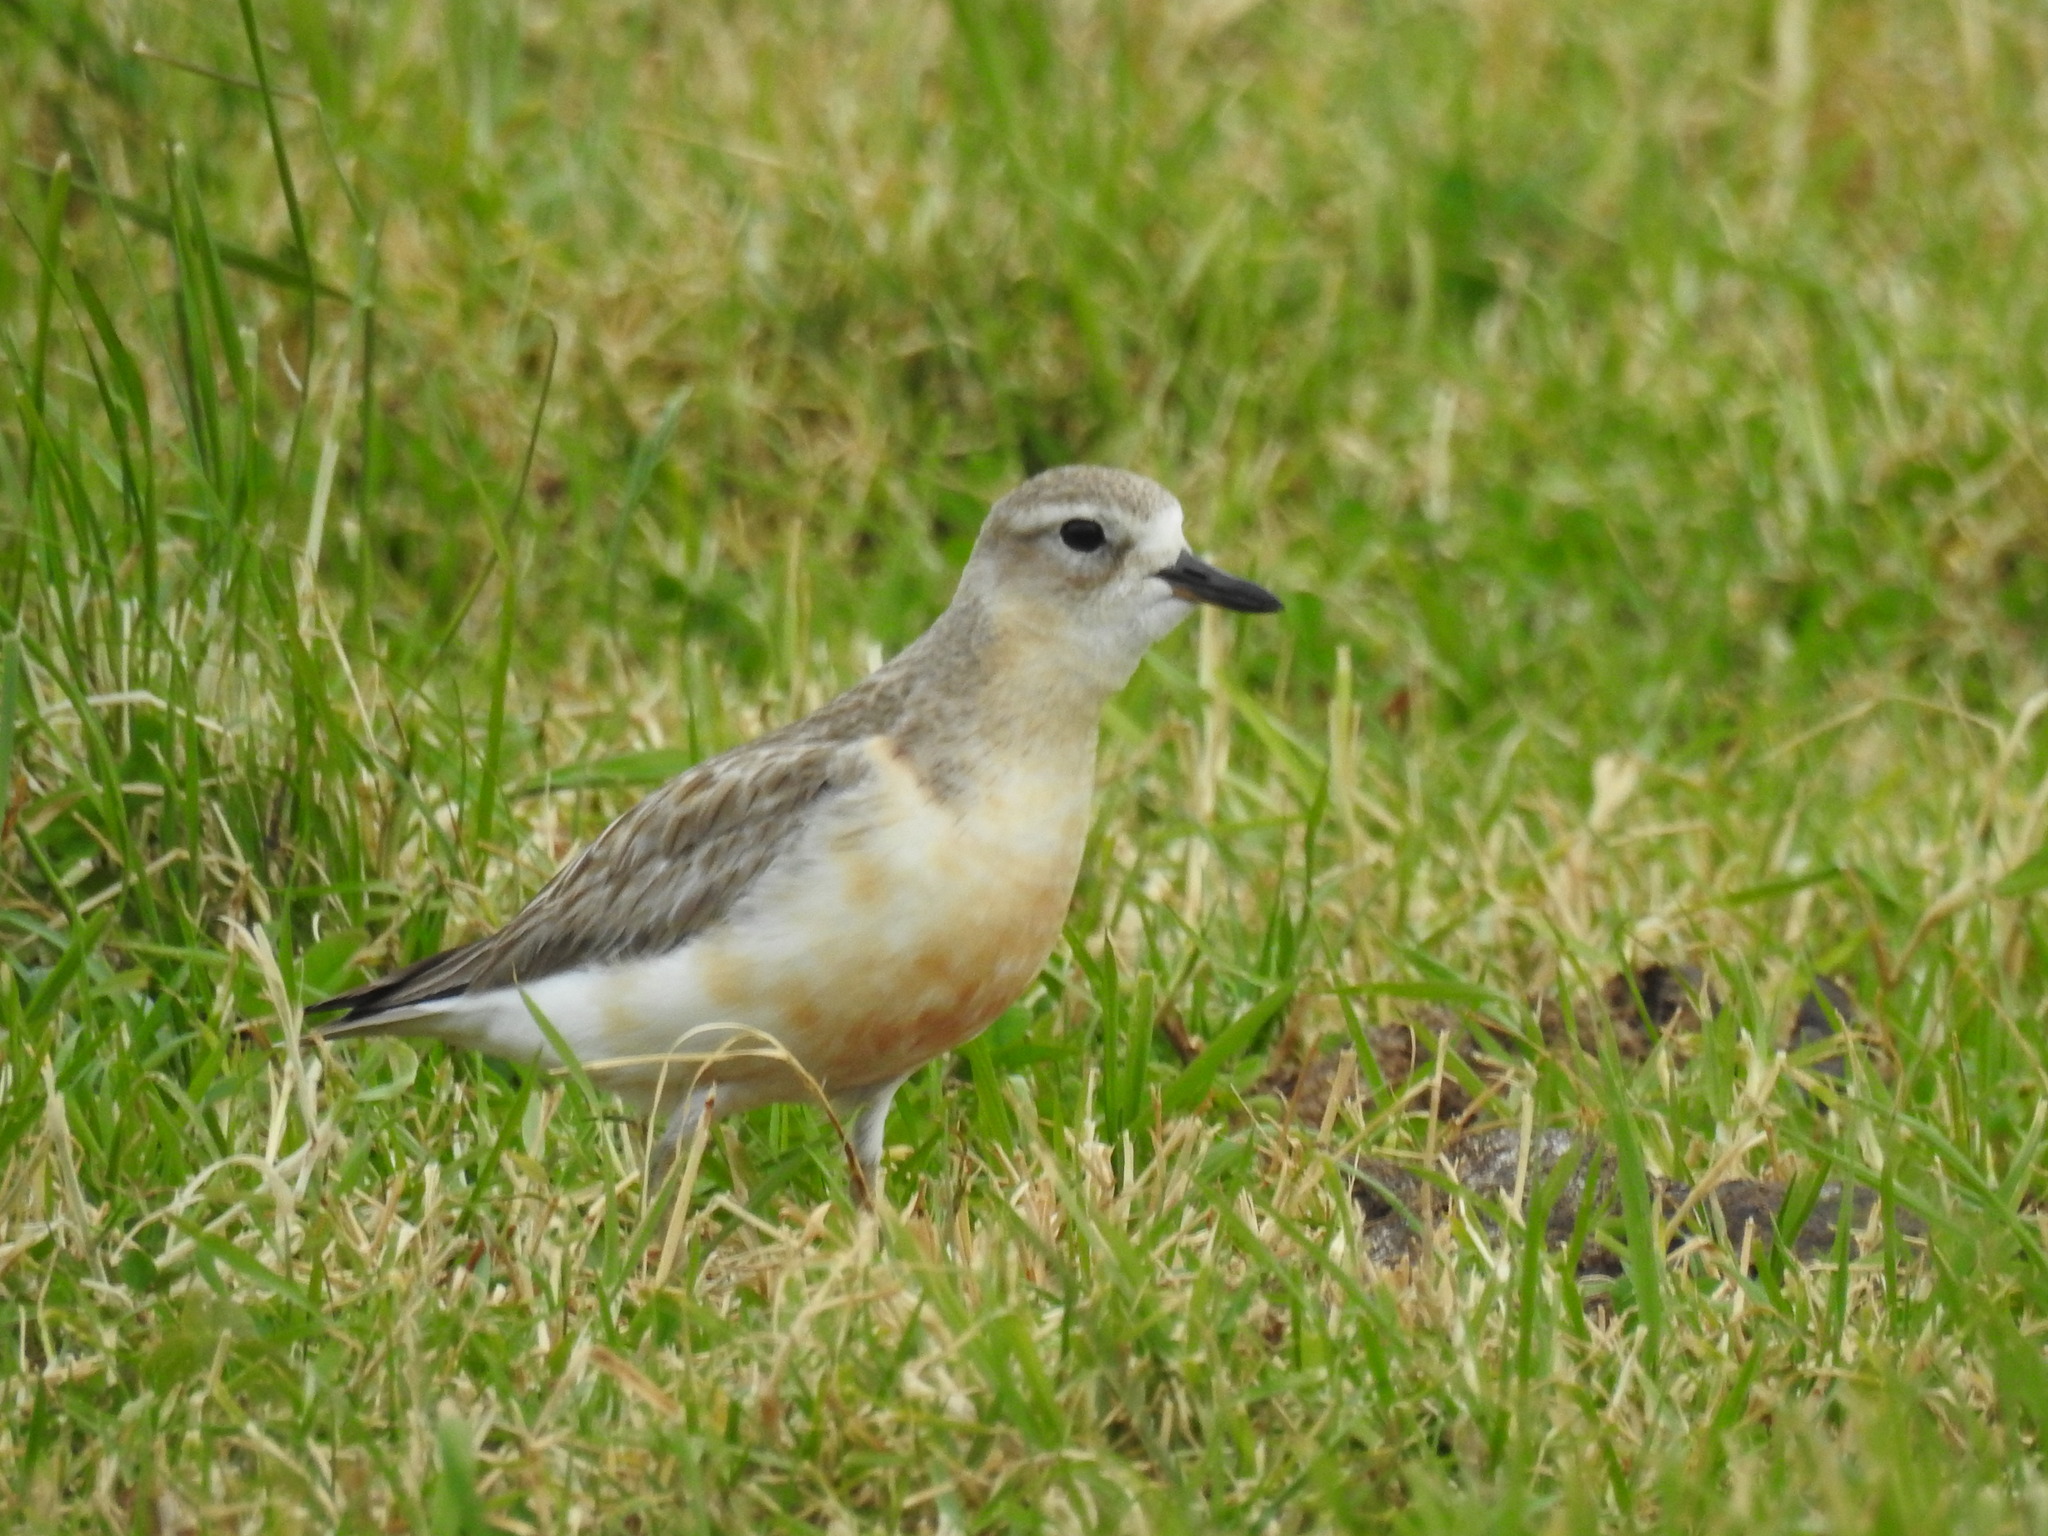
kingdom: Animalia
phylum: Chordata
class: Aves
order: Charadriiformes
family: Charadriidae
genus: Anarhynchus
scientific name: Anarhynchus
